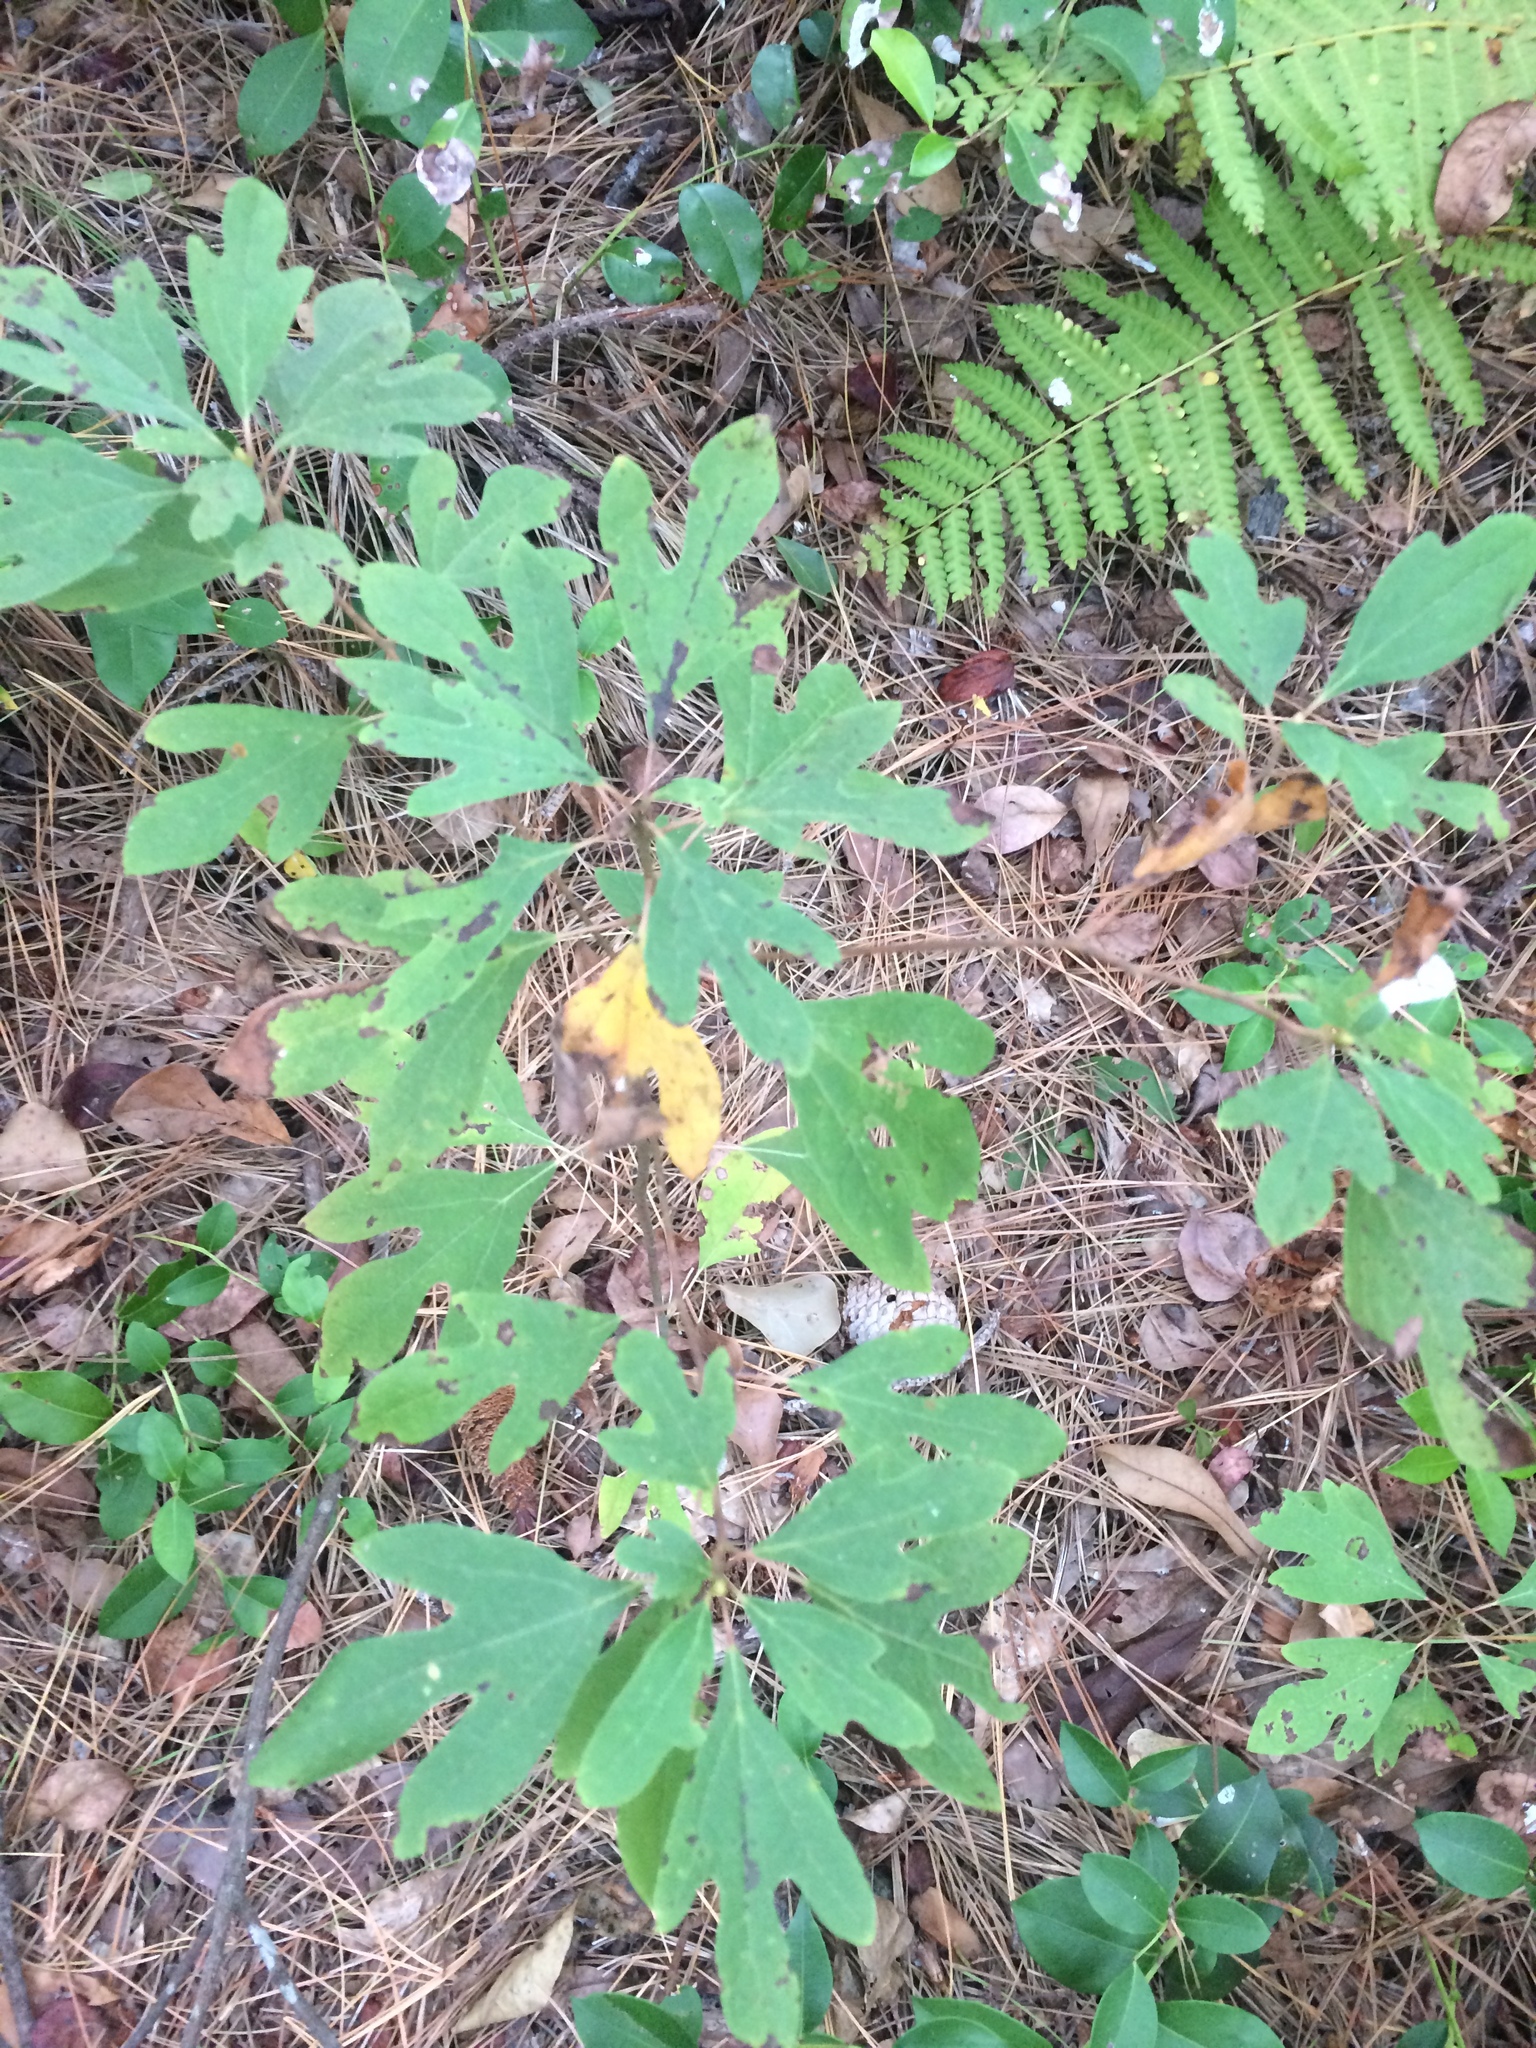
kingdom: Plantae
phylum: Tracheophyta
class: Magnoliopsida
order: Laurales
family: Lauraceae
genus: Sassafras
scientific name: Sassafras albidum
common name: Sassafras
